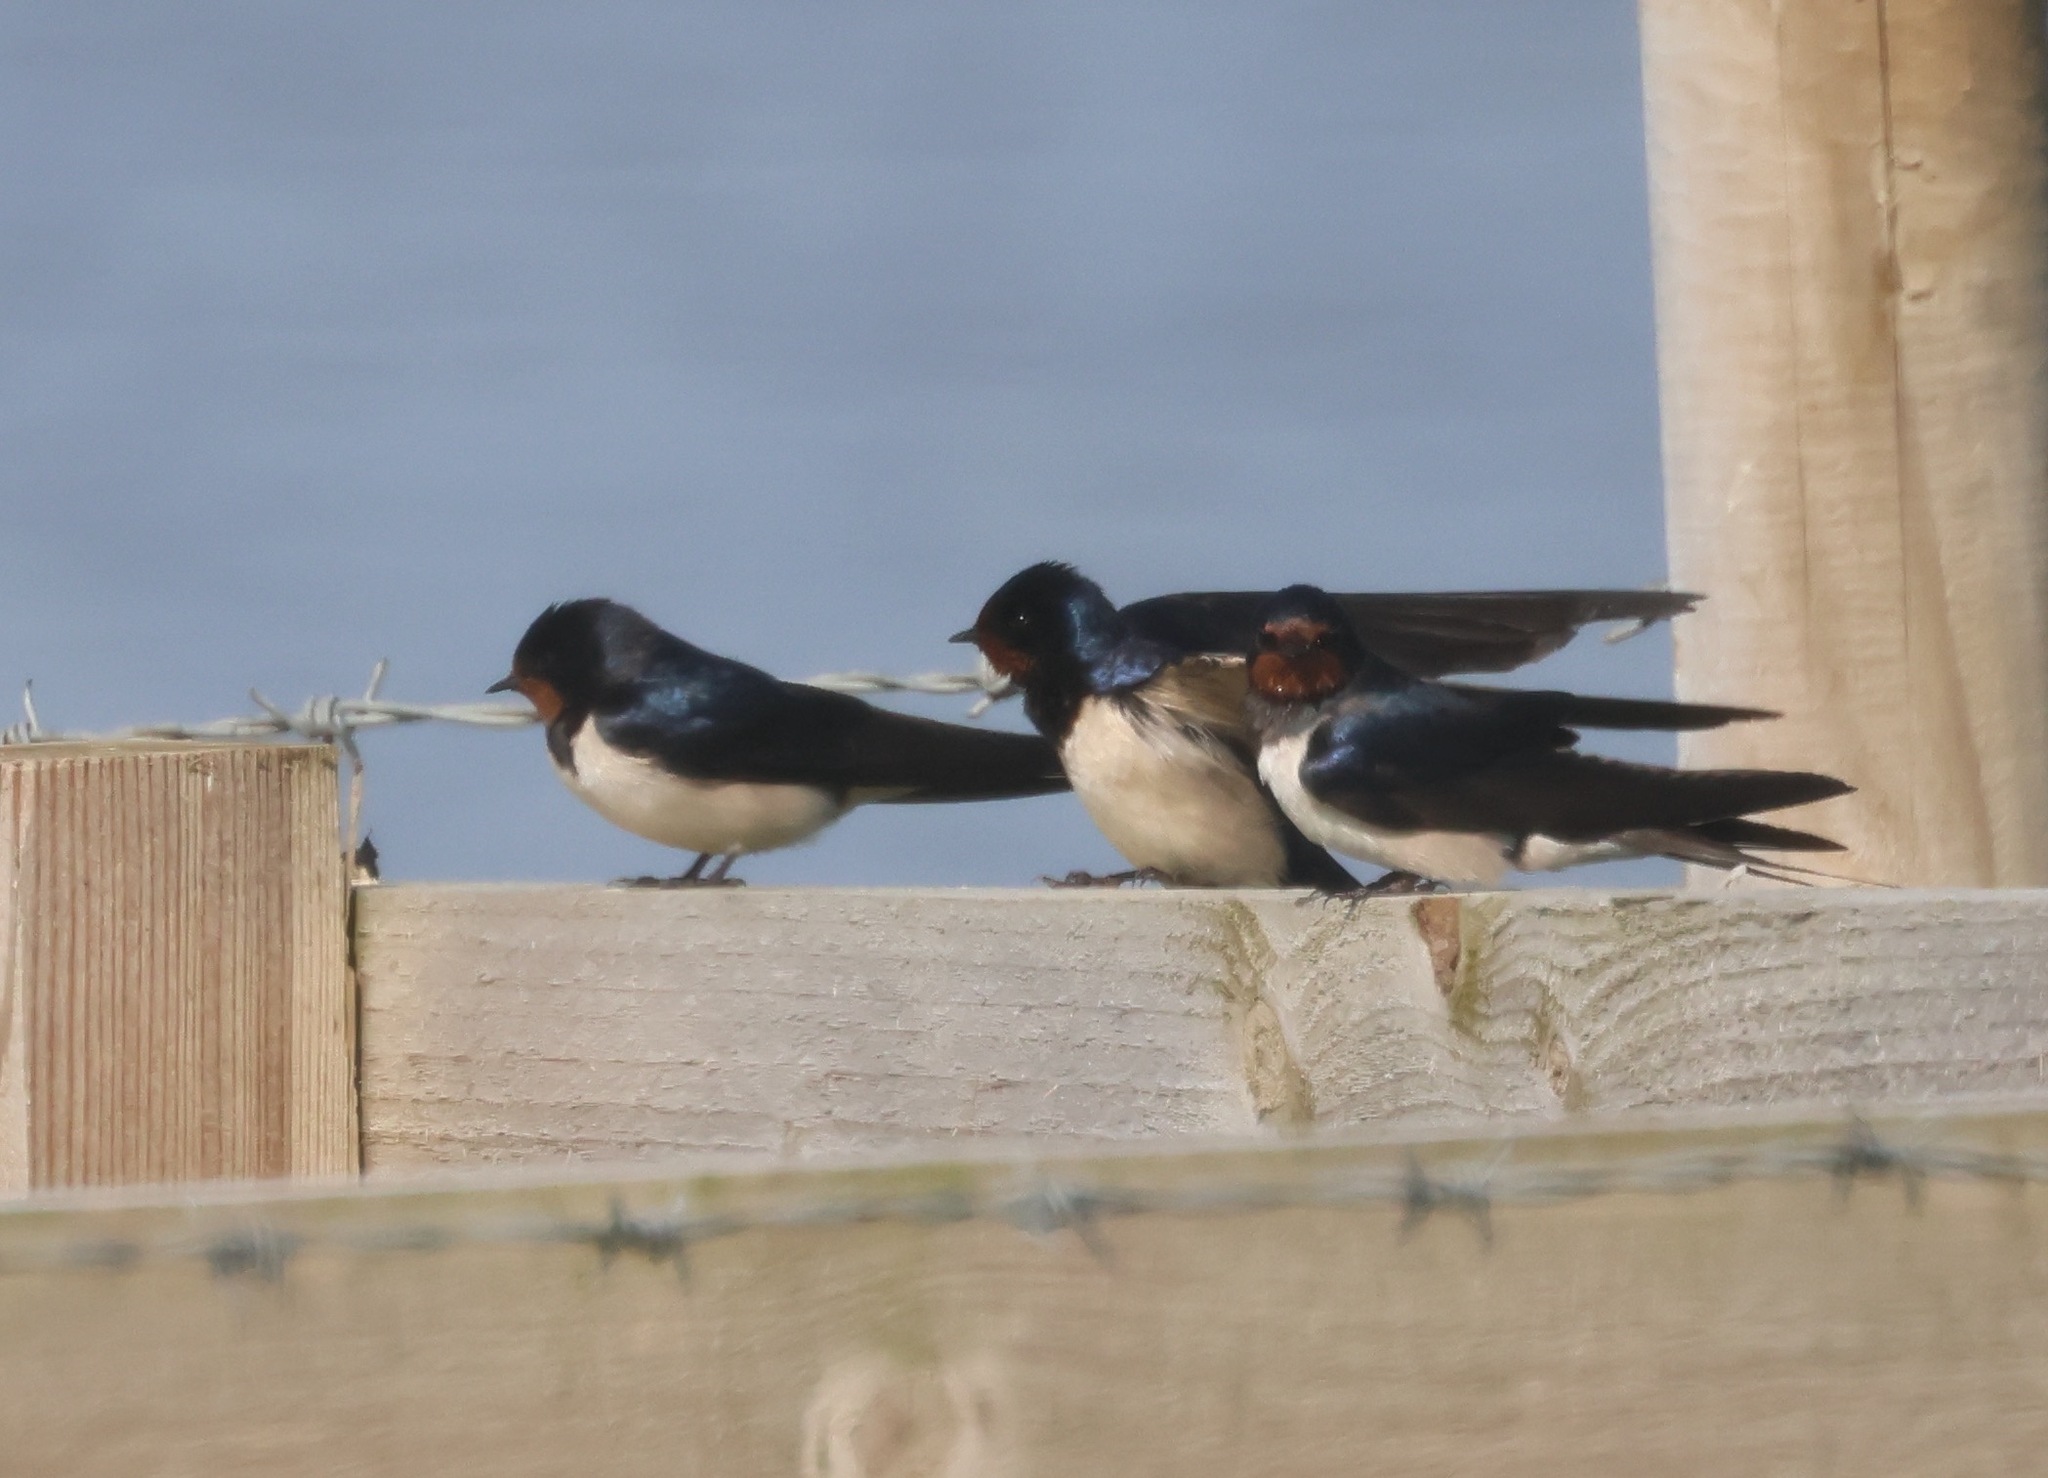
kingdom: Animalia
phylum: Chordata
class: Aves
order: Passeriformes
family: Hirundinidae
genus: Hirundo
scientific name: Hirundo rustica
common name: Barn swallow
